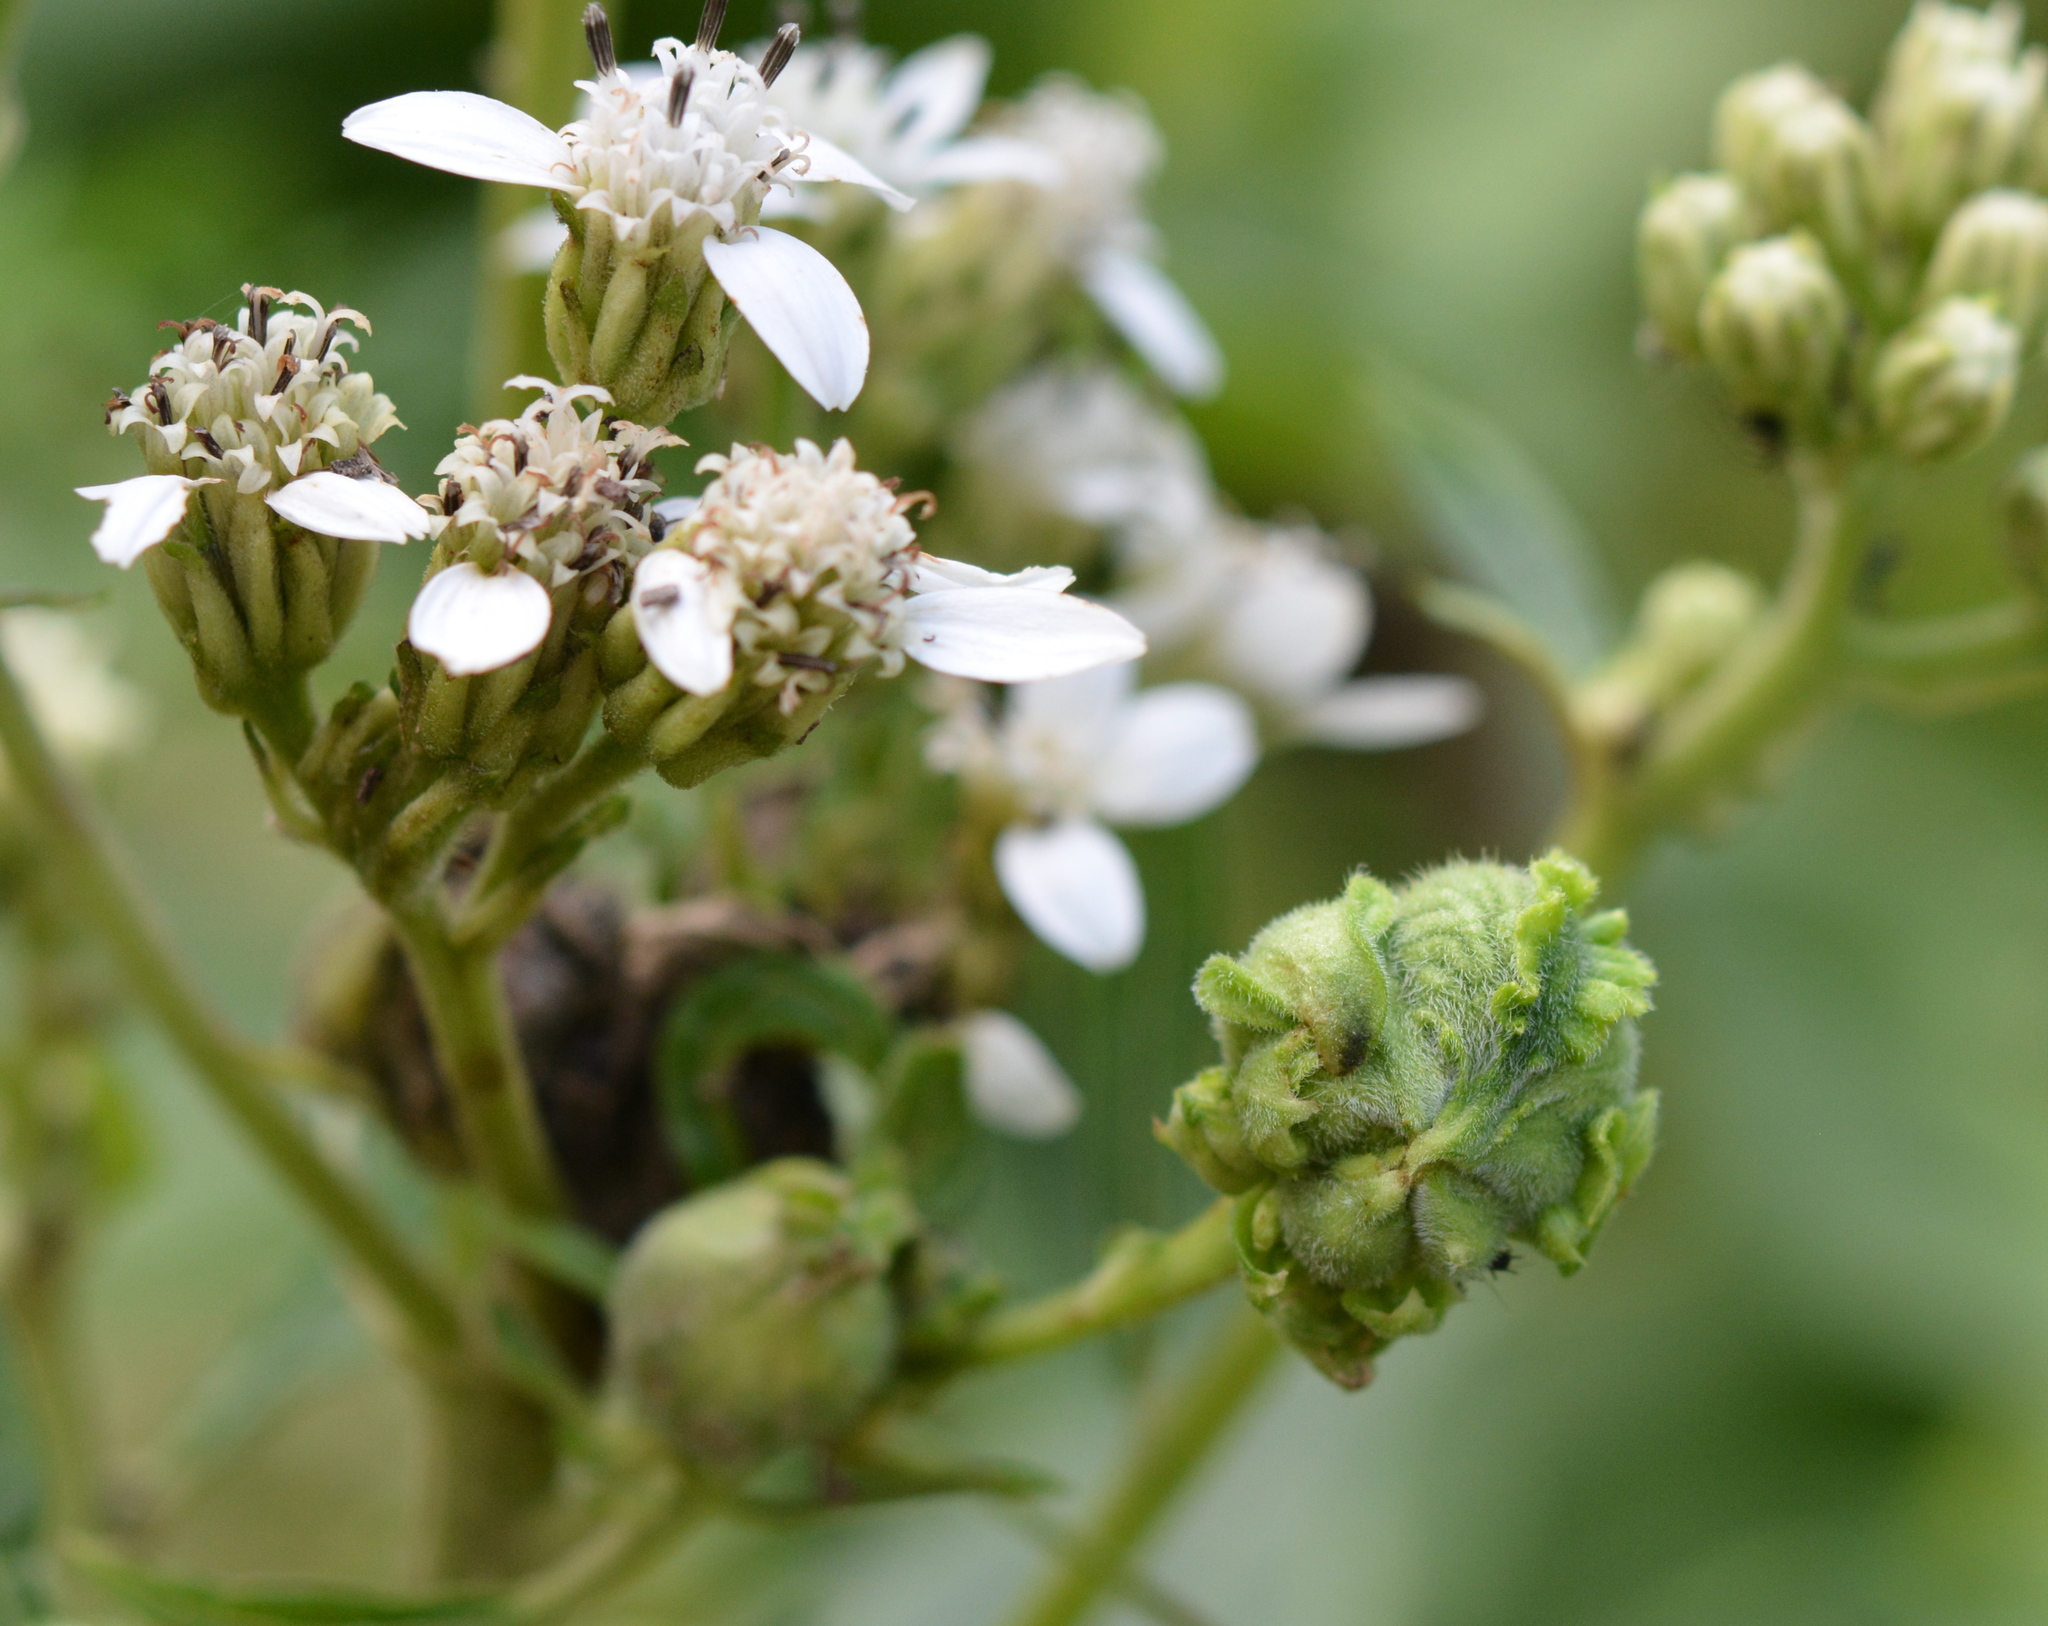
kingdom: Animalia
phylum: Arthropoda
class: Insecta
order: Diptera
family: Cecidomyiidae
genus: Schizomyia
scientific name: Schizomyia
